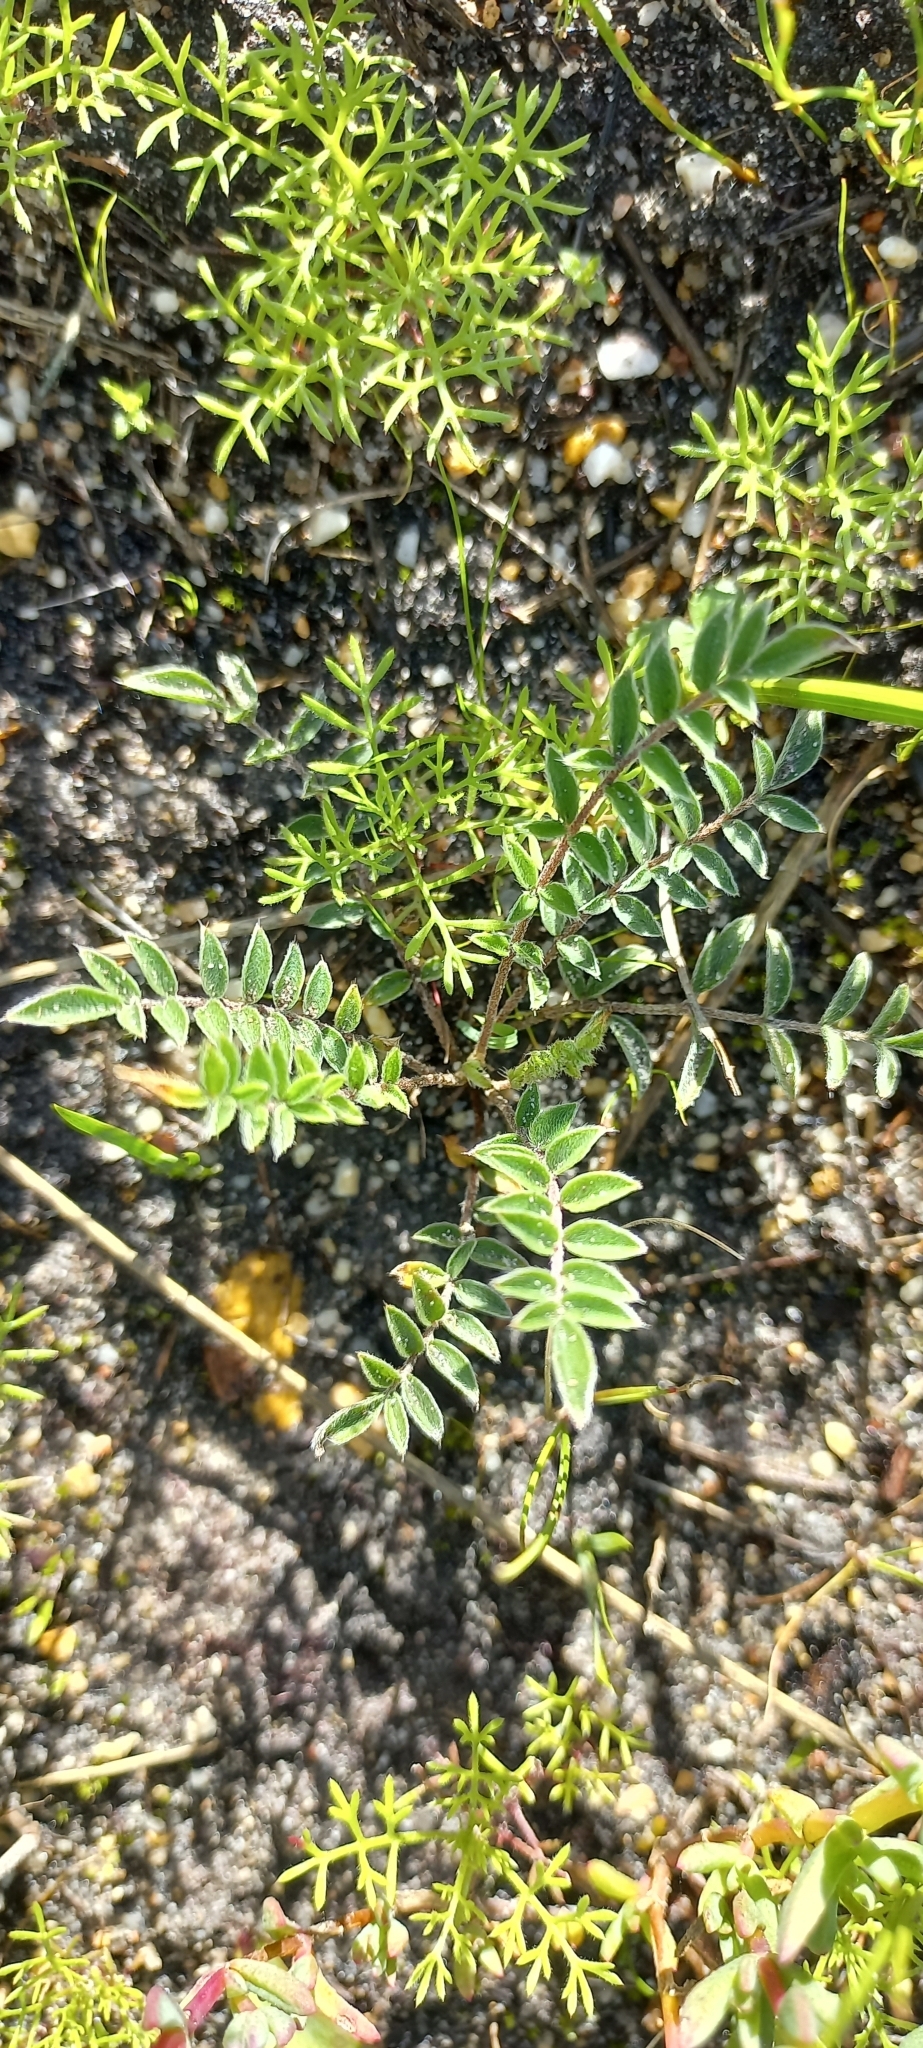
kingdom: Plantae
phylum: Tracheophyta
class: Magnoliopsida
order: Geraniales
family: Geraniaceae
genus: Pelargonium
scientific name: Pelargonium pinnatum
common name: Pinnated pelargonium
